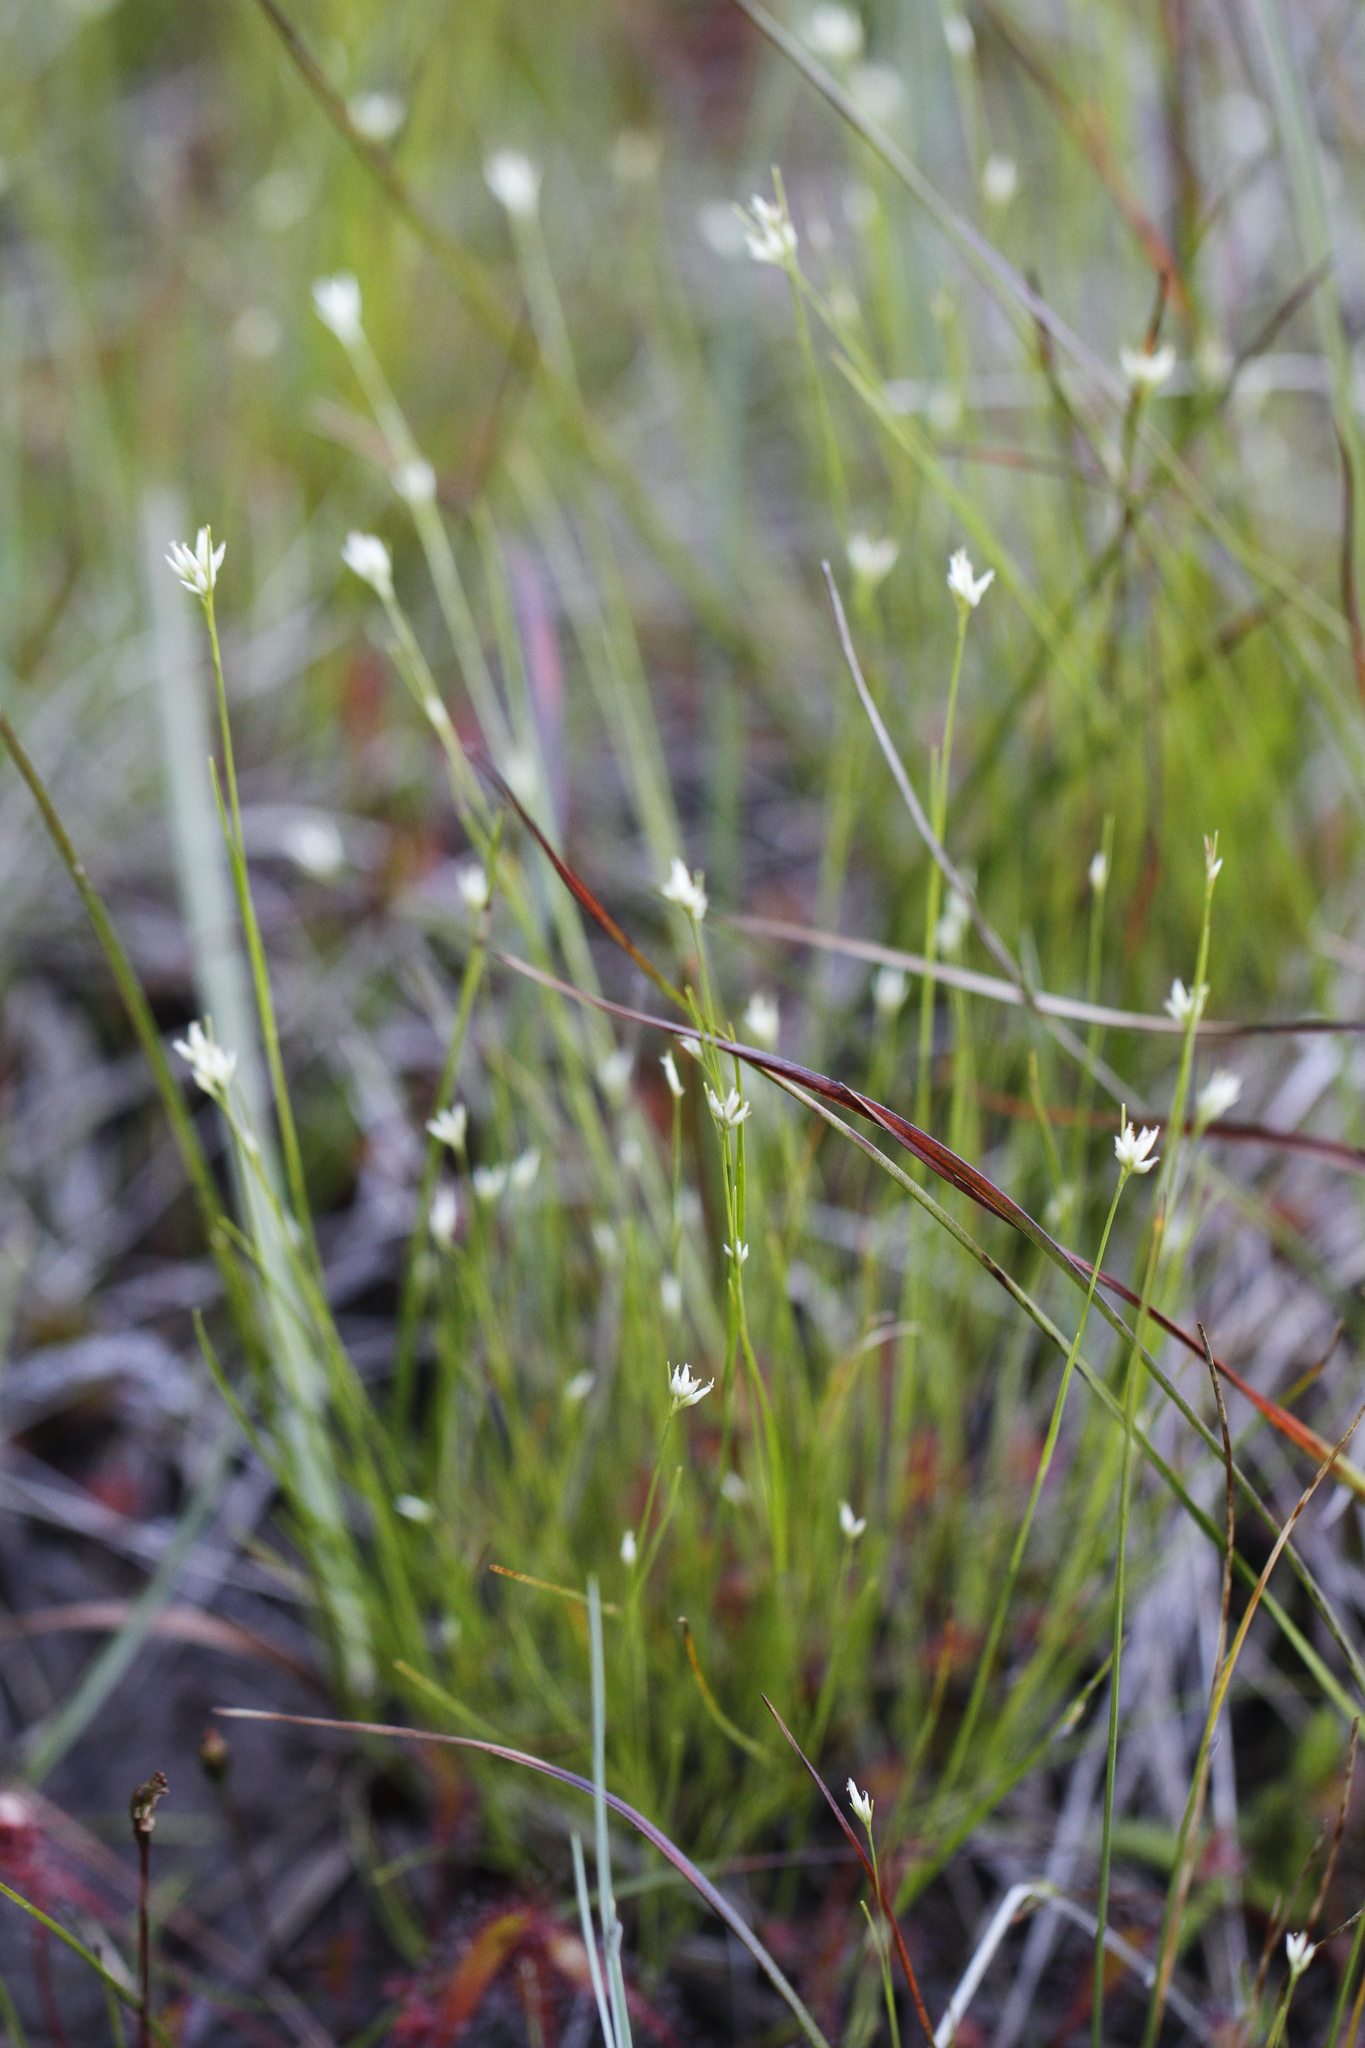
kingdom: Plantae
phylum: Tracheophyta
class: Liliopsida
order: Poales
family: Cyperaceae
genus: Rhynchospora
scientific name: Rhynchospora alba
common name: White beak-sedge
